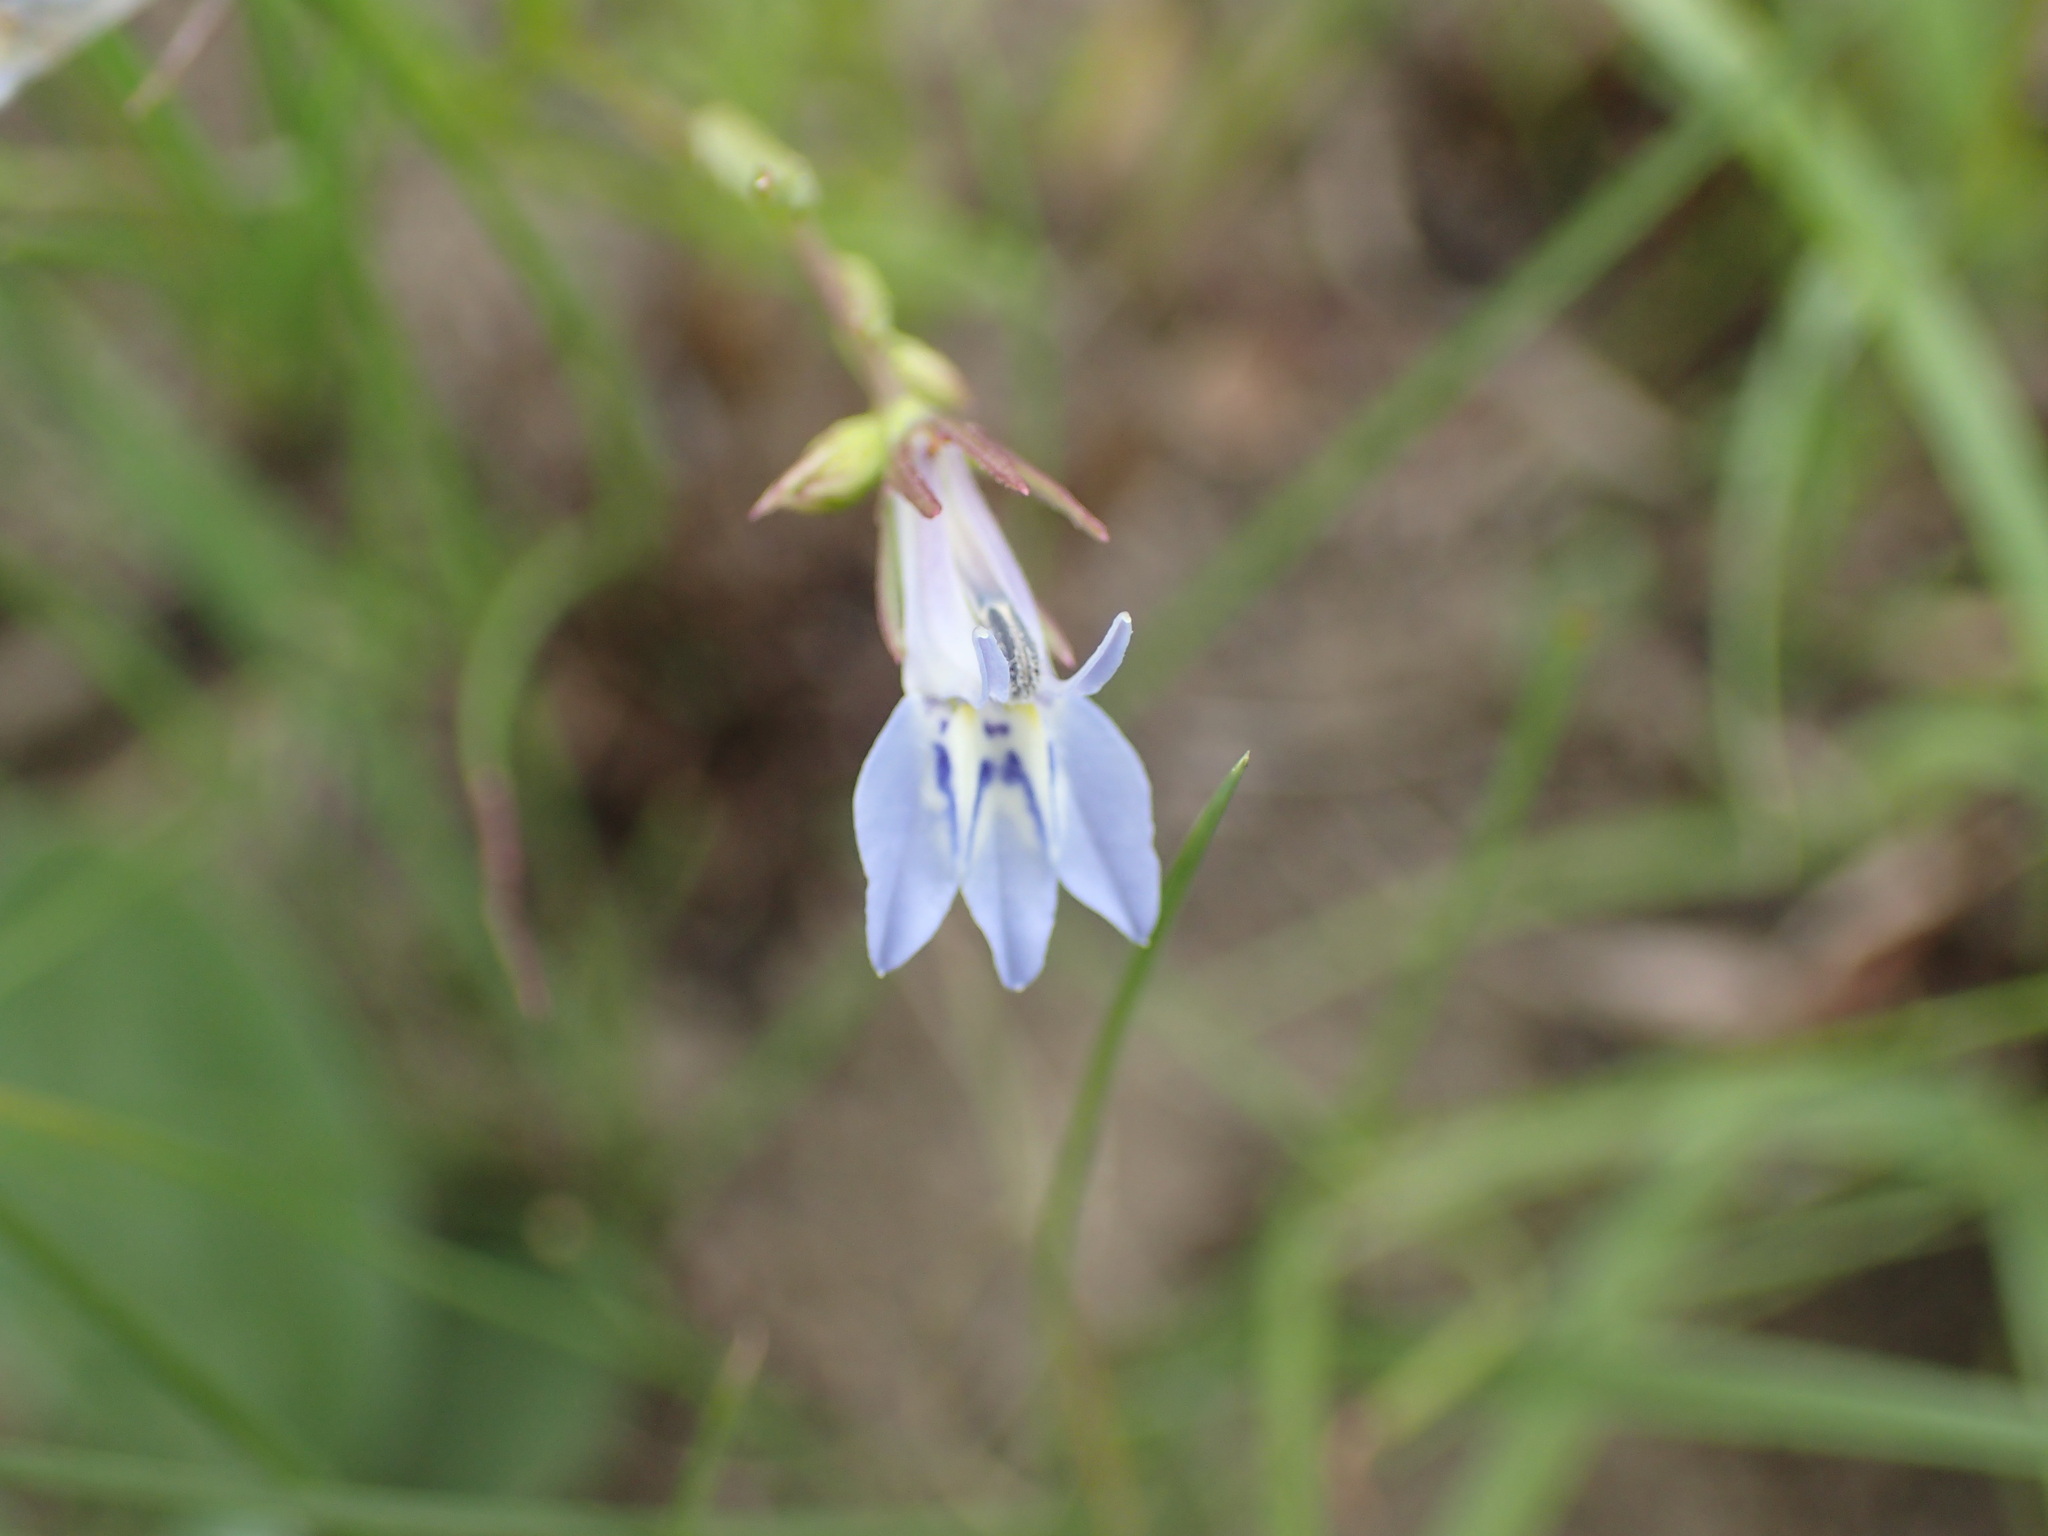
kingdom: Plantae
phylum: Tracheophyta
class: Magnoliopsida
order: Asterales
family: Campanulaceae
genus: Lobelia
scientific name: Lobelia flaccida
